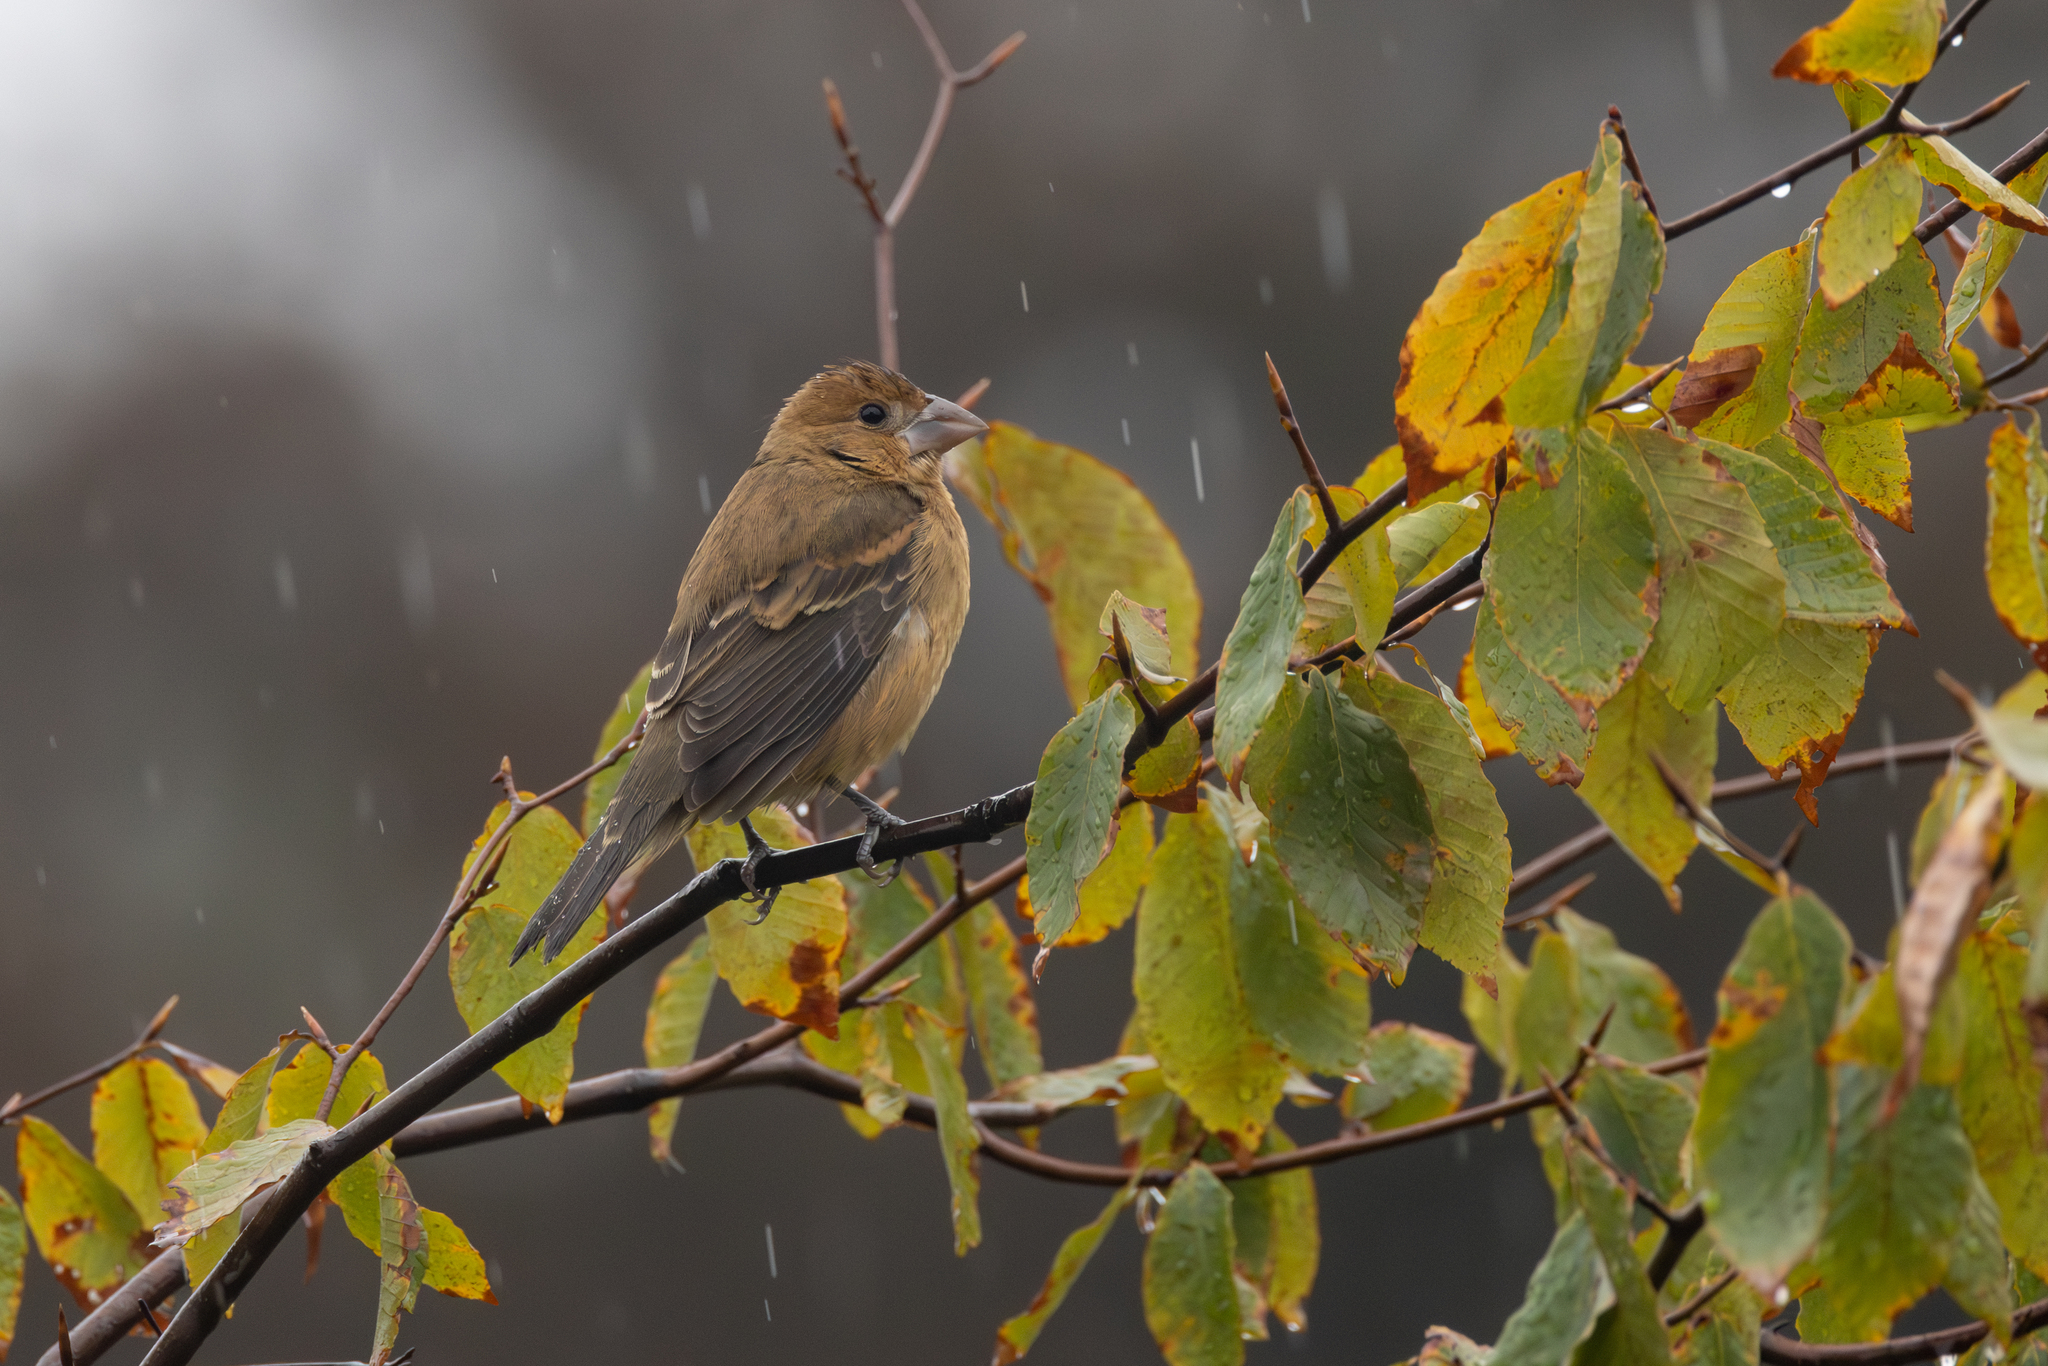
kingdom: Animalia
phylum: Chordata
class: Aves
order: Passeriformes
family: Cardinalidae
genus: Passerina
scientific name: Passerina caerulea
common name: Blue grosbeak
